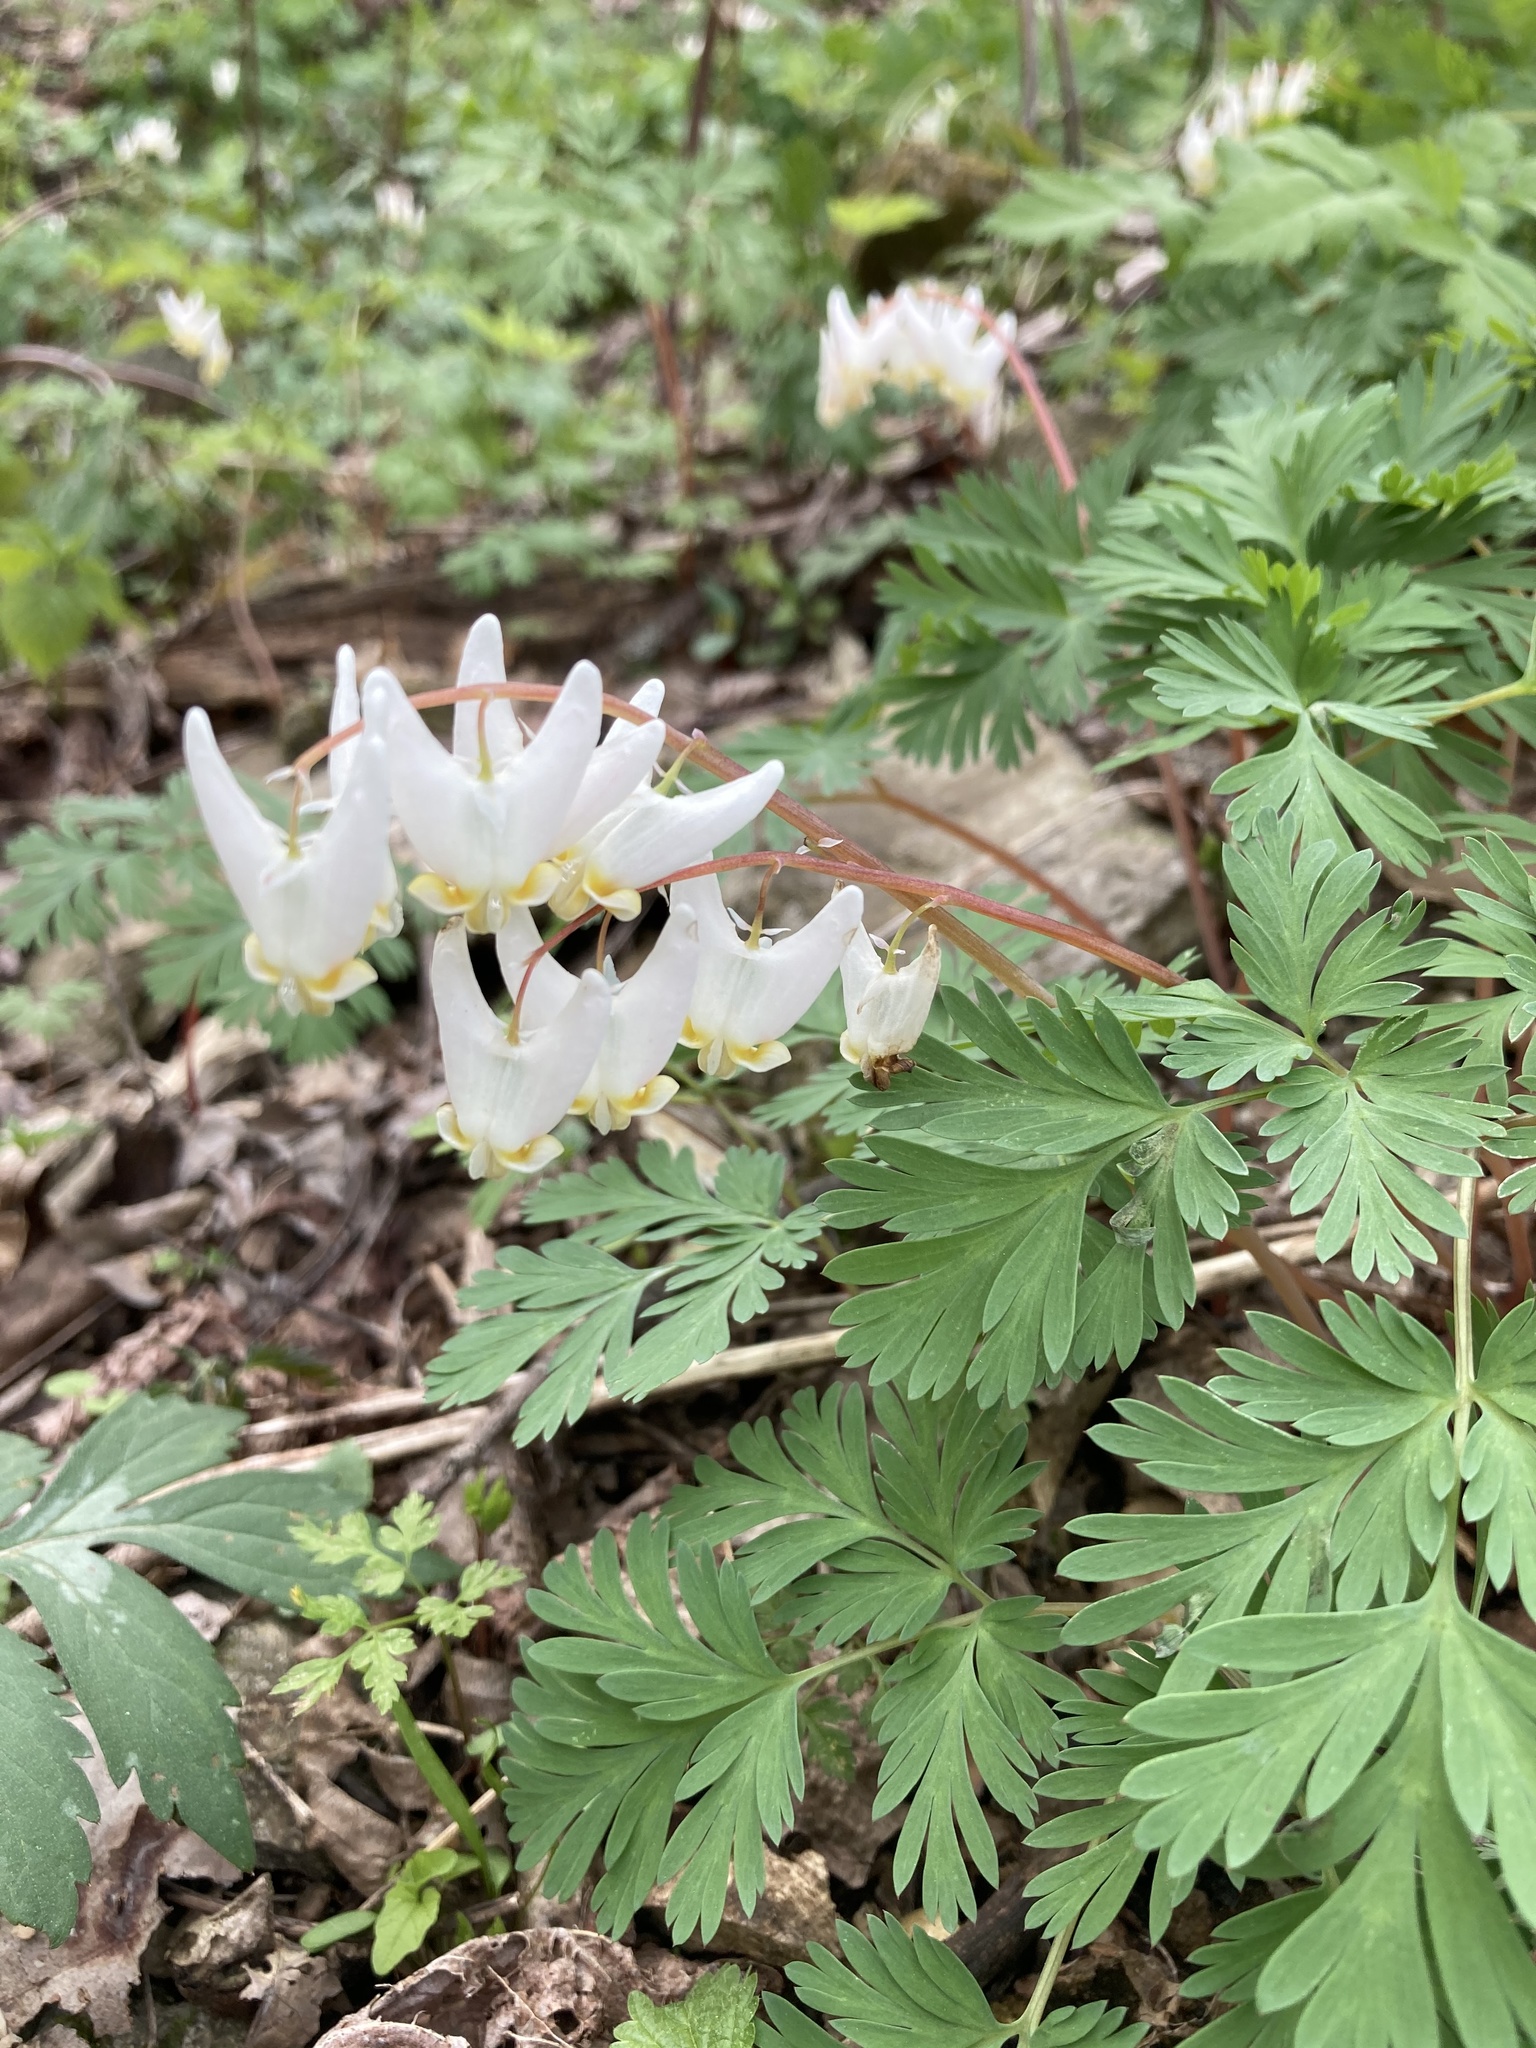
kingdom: Plantae
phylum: Tracheophyta
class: Magnoliopsida
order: Ranunculales
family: Papaveraceae
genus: Dicentra
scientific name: Dicentra cucullaria
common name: Dutchman's breeches
